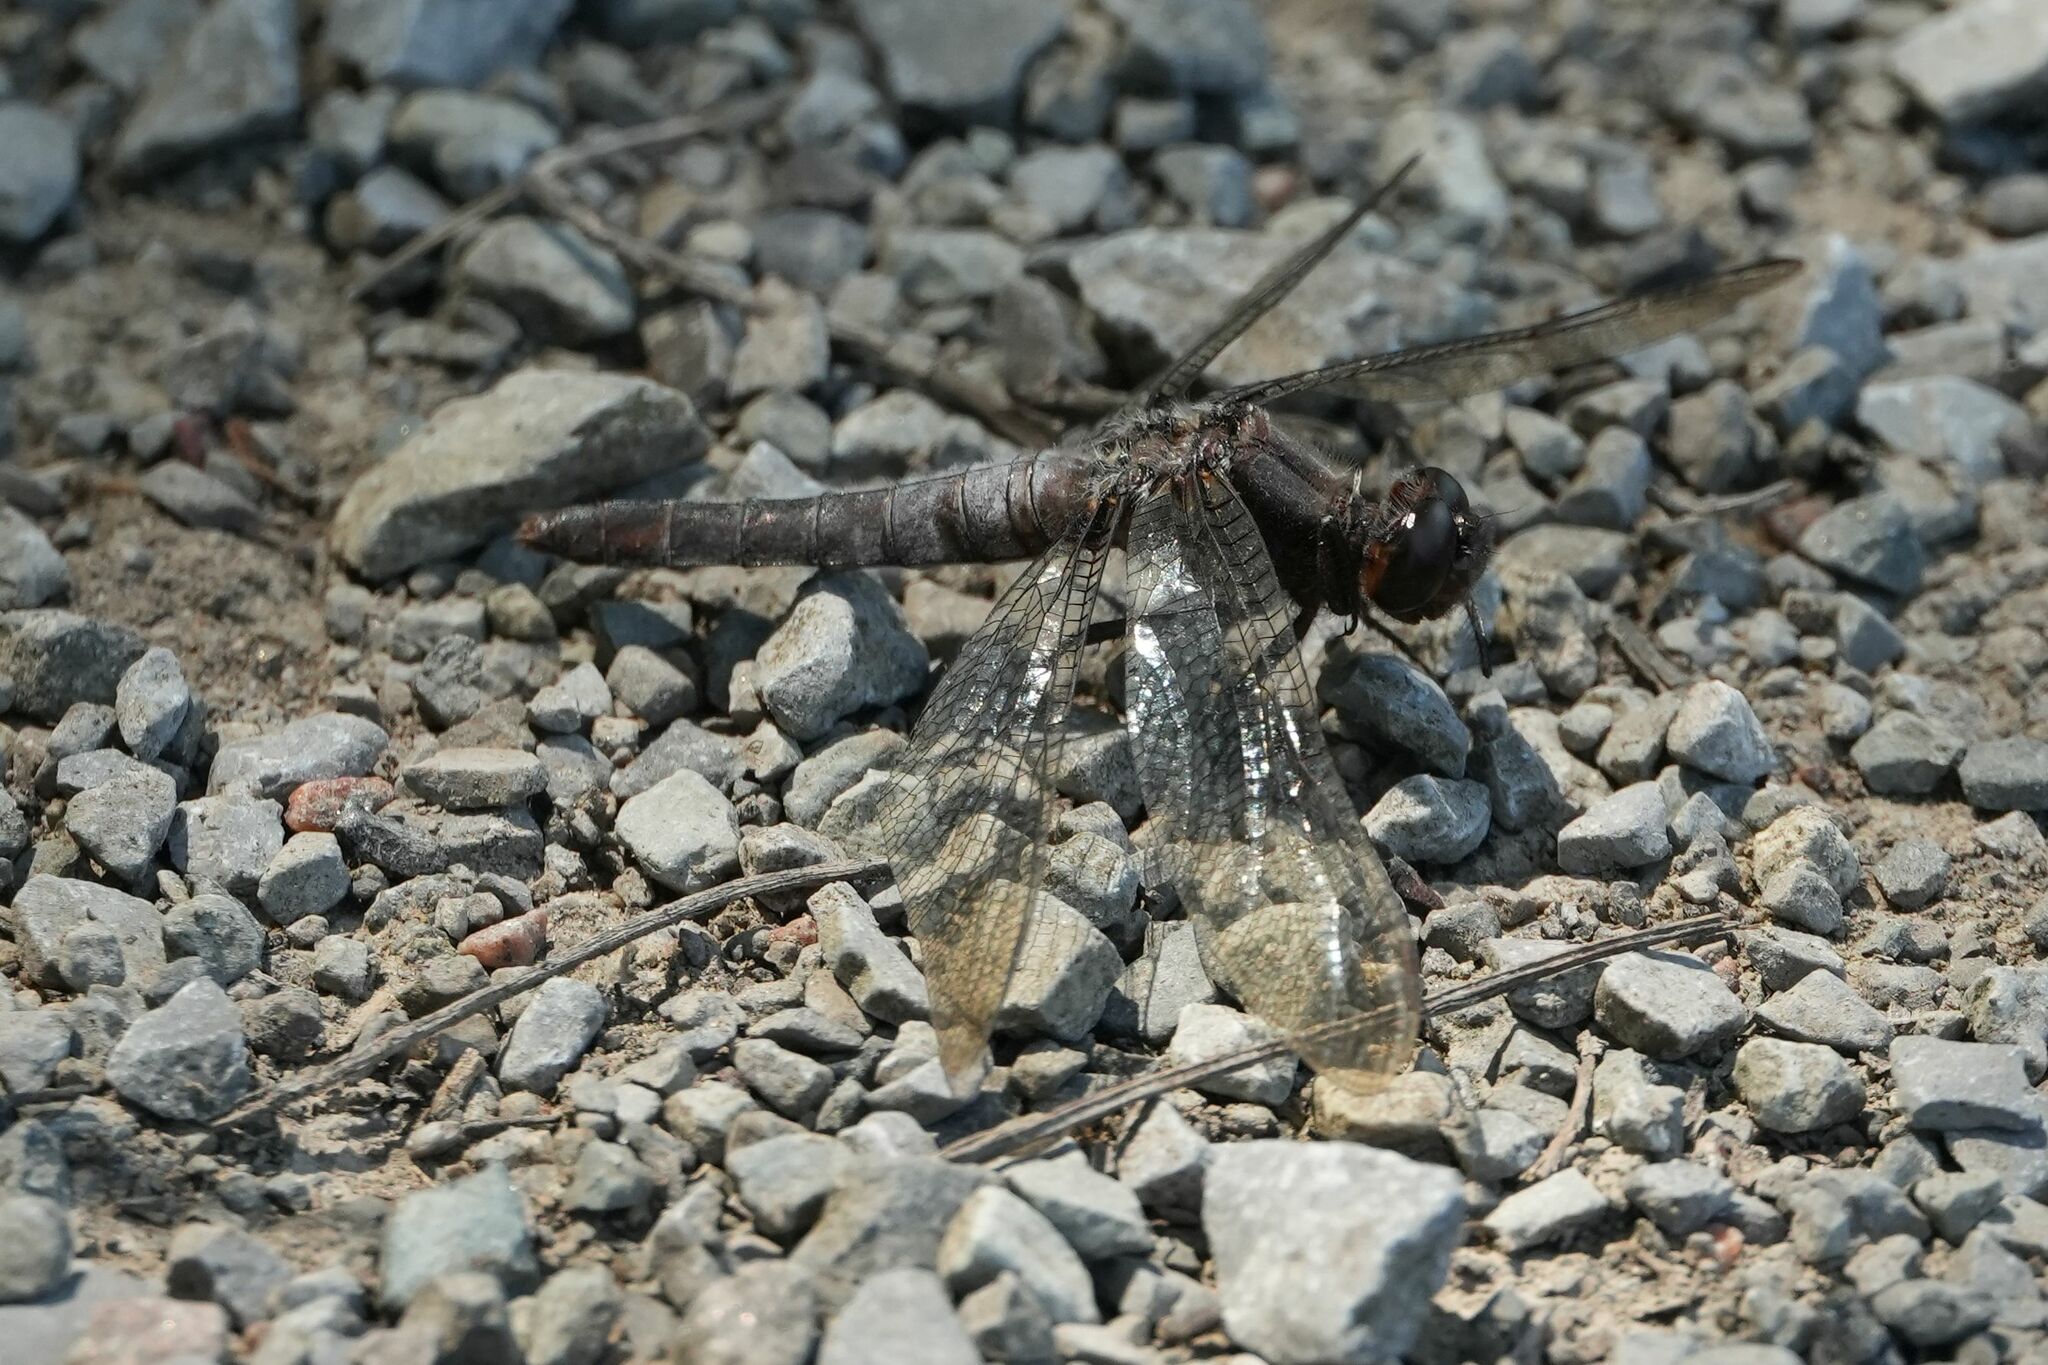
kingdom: Animalia
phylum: Arthropoda
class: Insecta
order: Odonata
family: Libellulidae
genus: Ladona
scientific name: Ladona julia
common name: Chalk-fronted corporal
